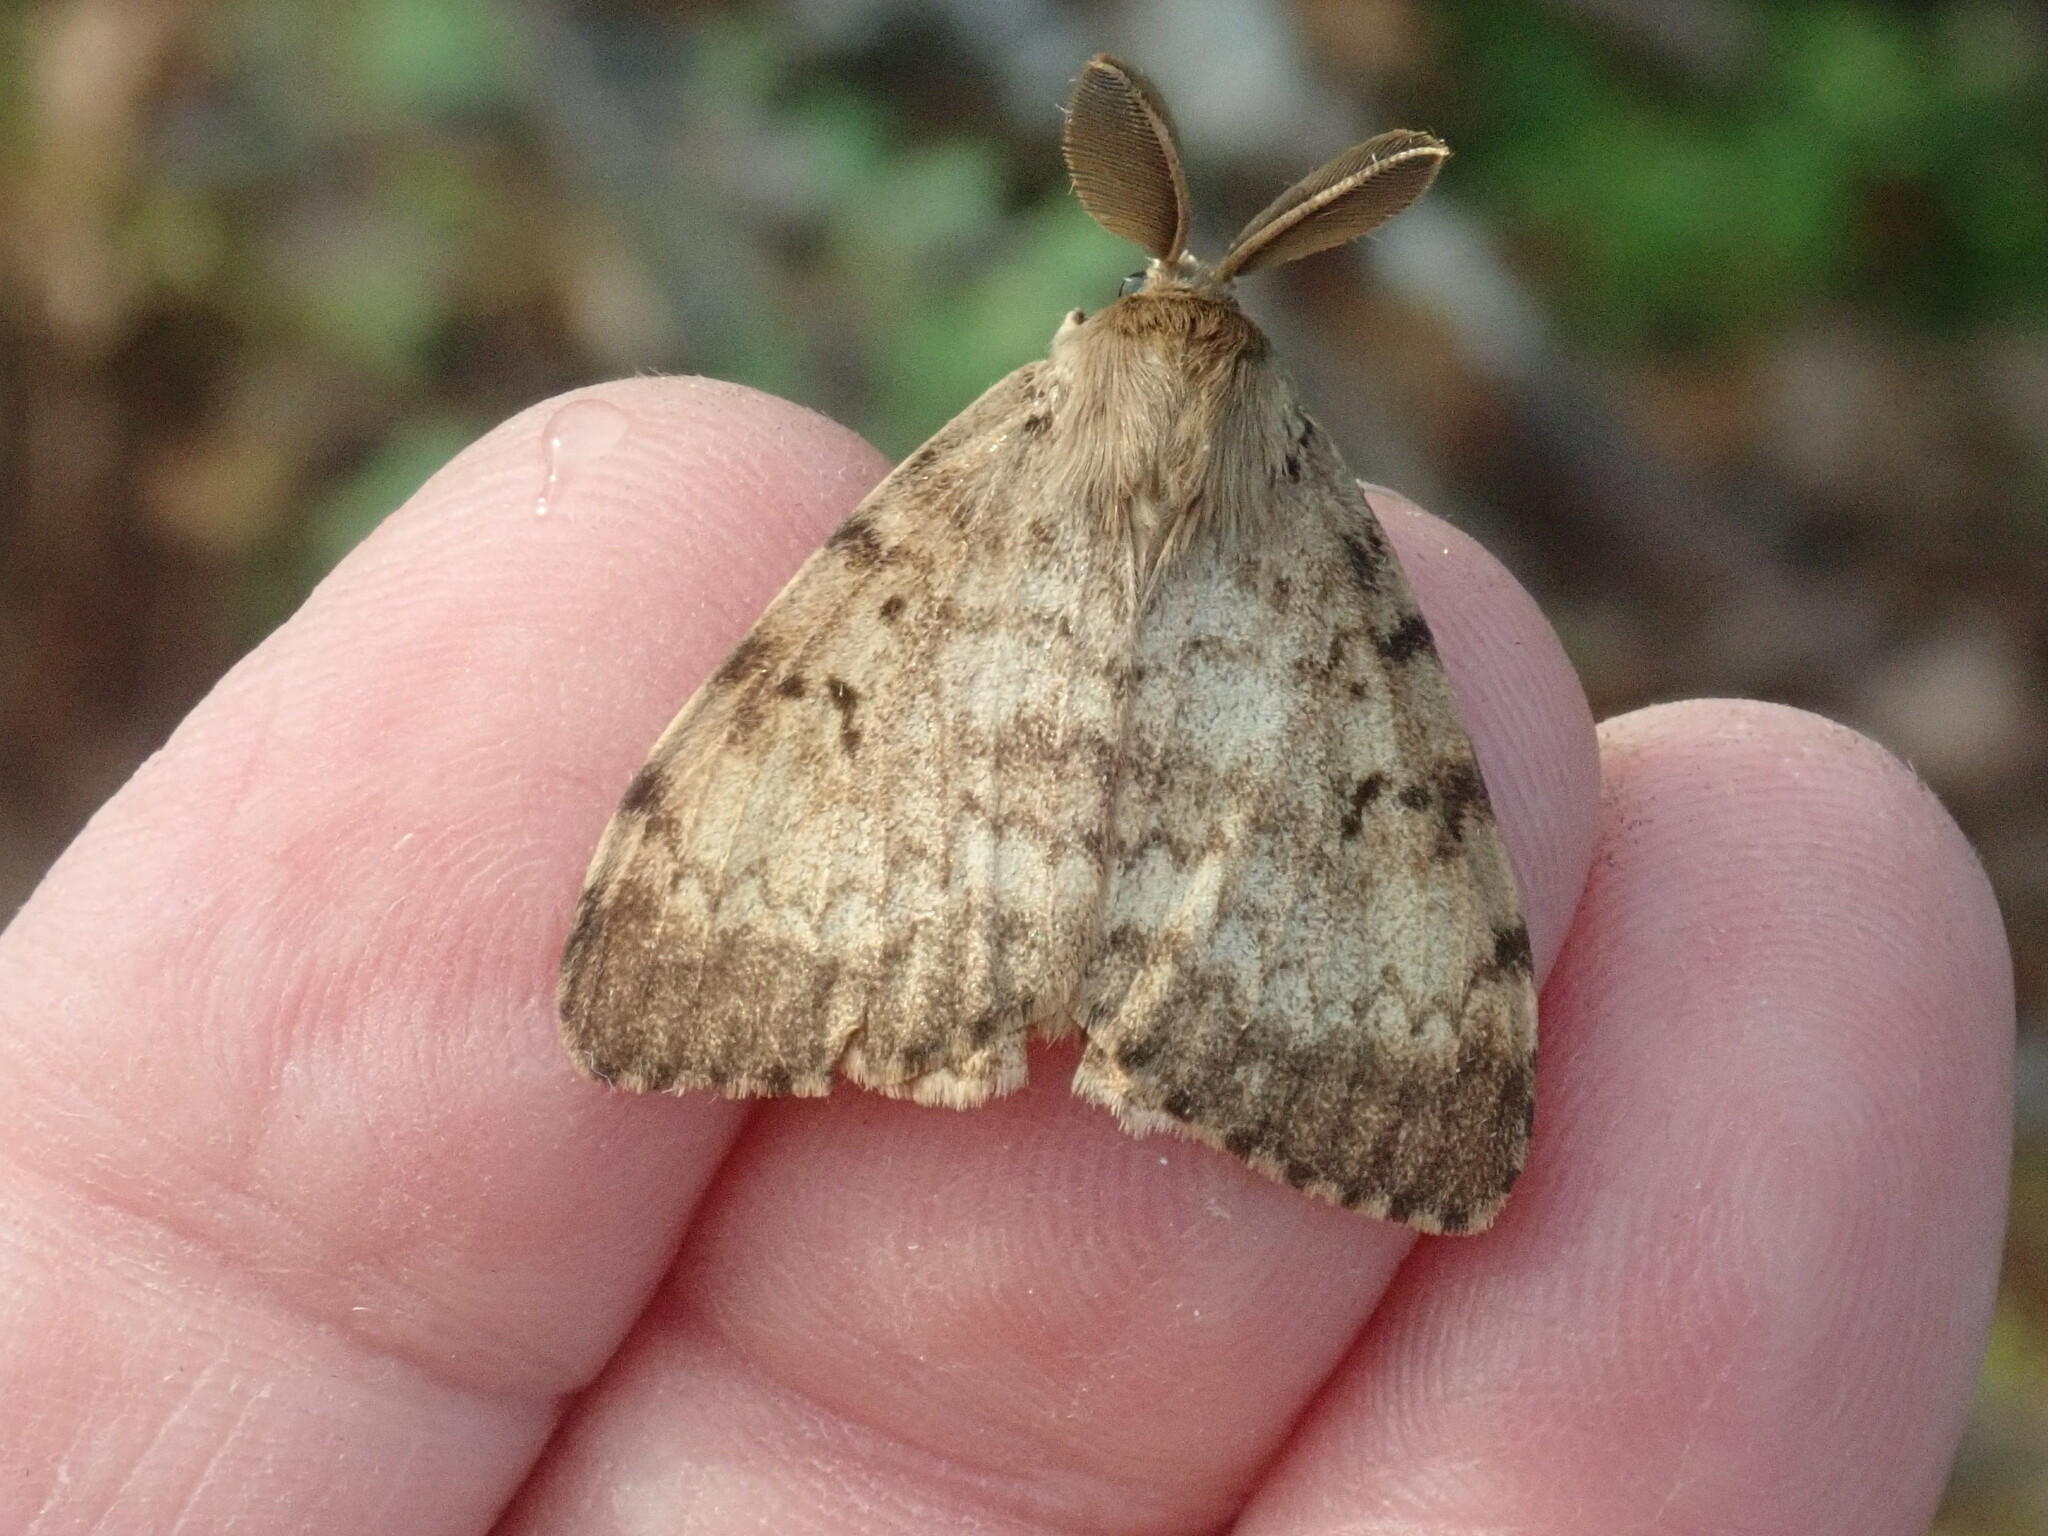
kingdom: Animalia
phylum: Arthropoda
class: Insecta
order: Lepidoptera
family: Erebidae
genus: Lymantria
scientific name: Lymantria dispar
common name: Gypsy moth
